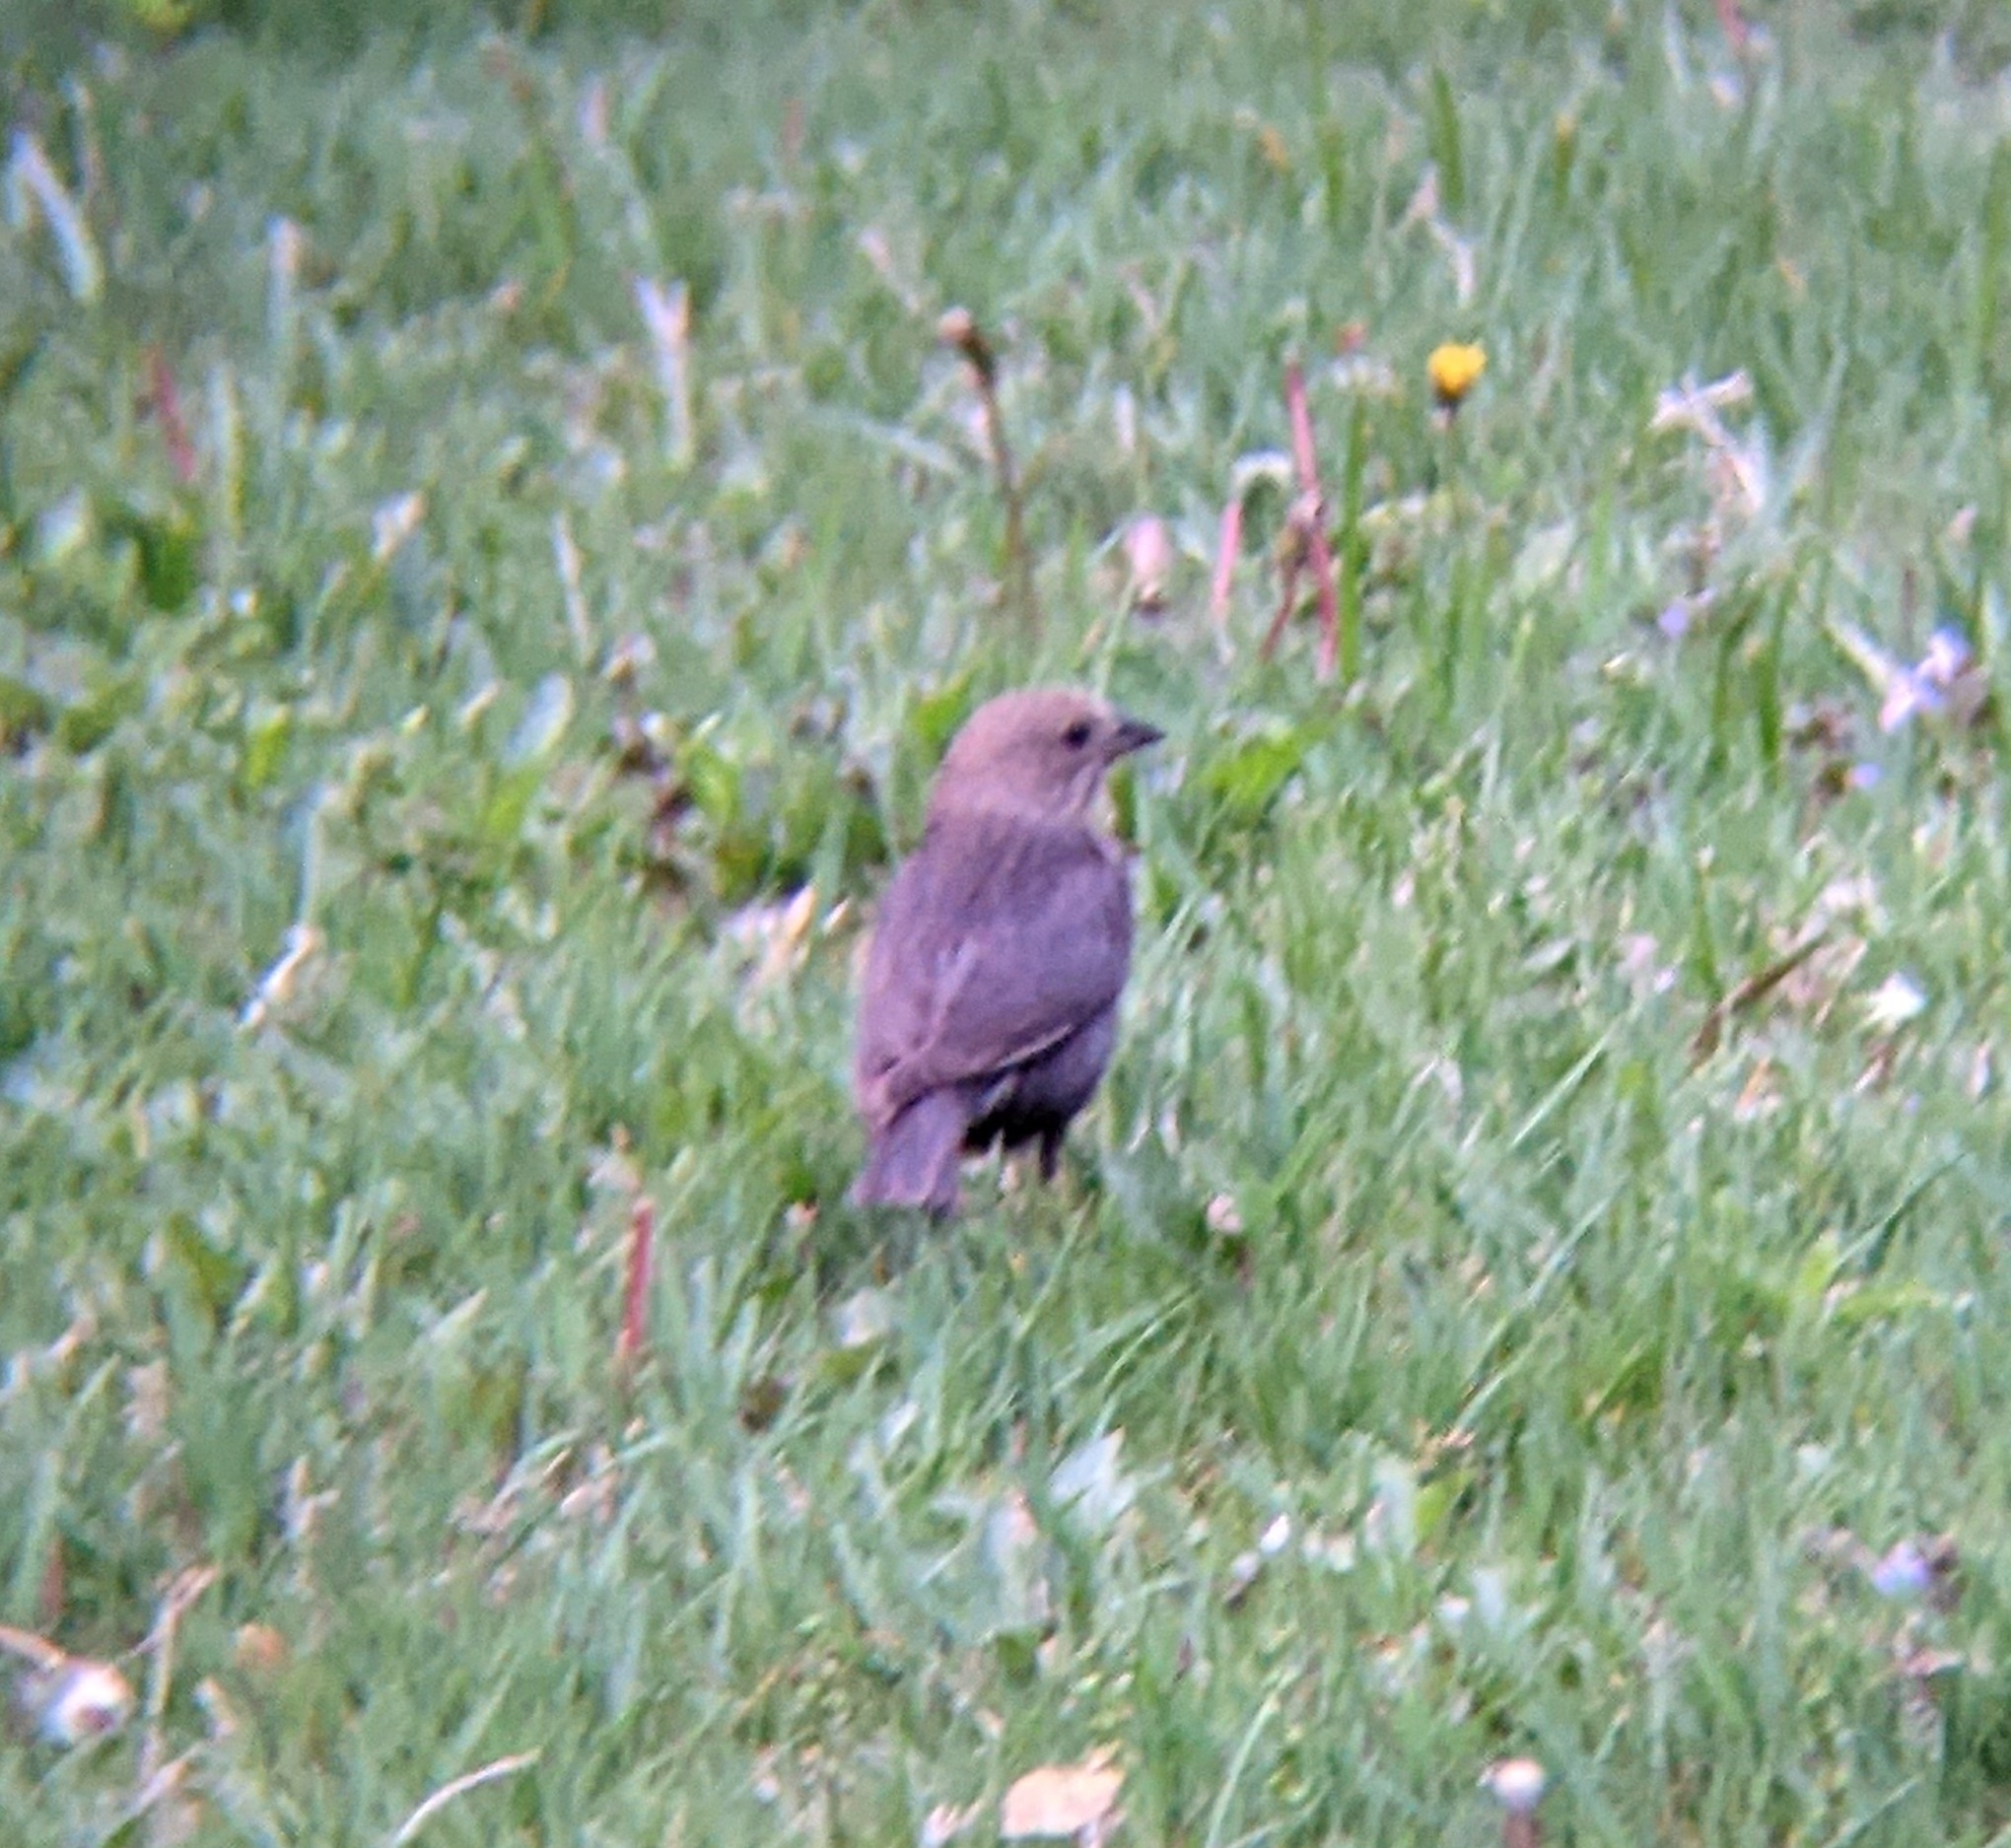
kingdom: Animalia
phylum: Chordata
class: Aves
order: Passeriformes
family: Icteridae
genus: Molothrus
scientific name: Molothrus ater
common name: Brown-headed cowbird
